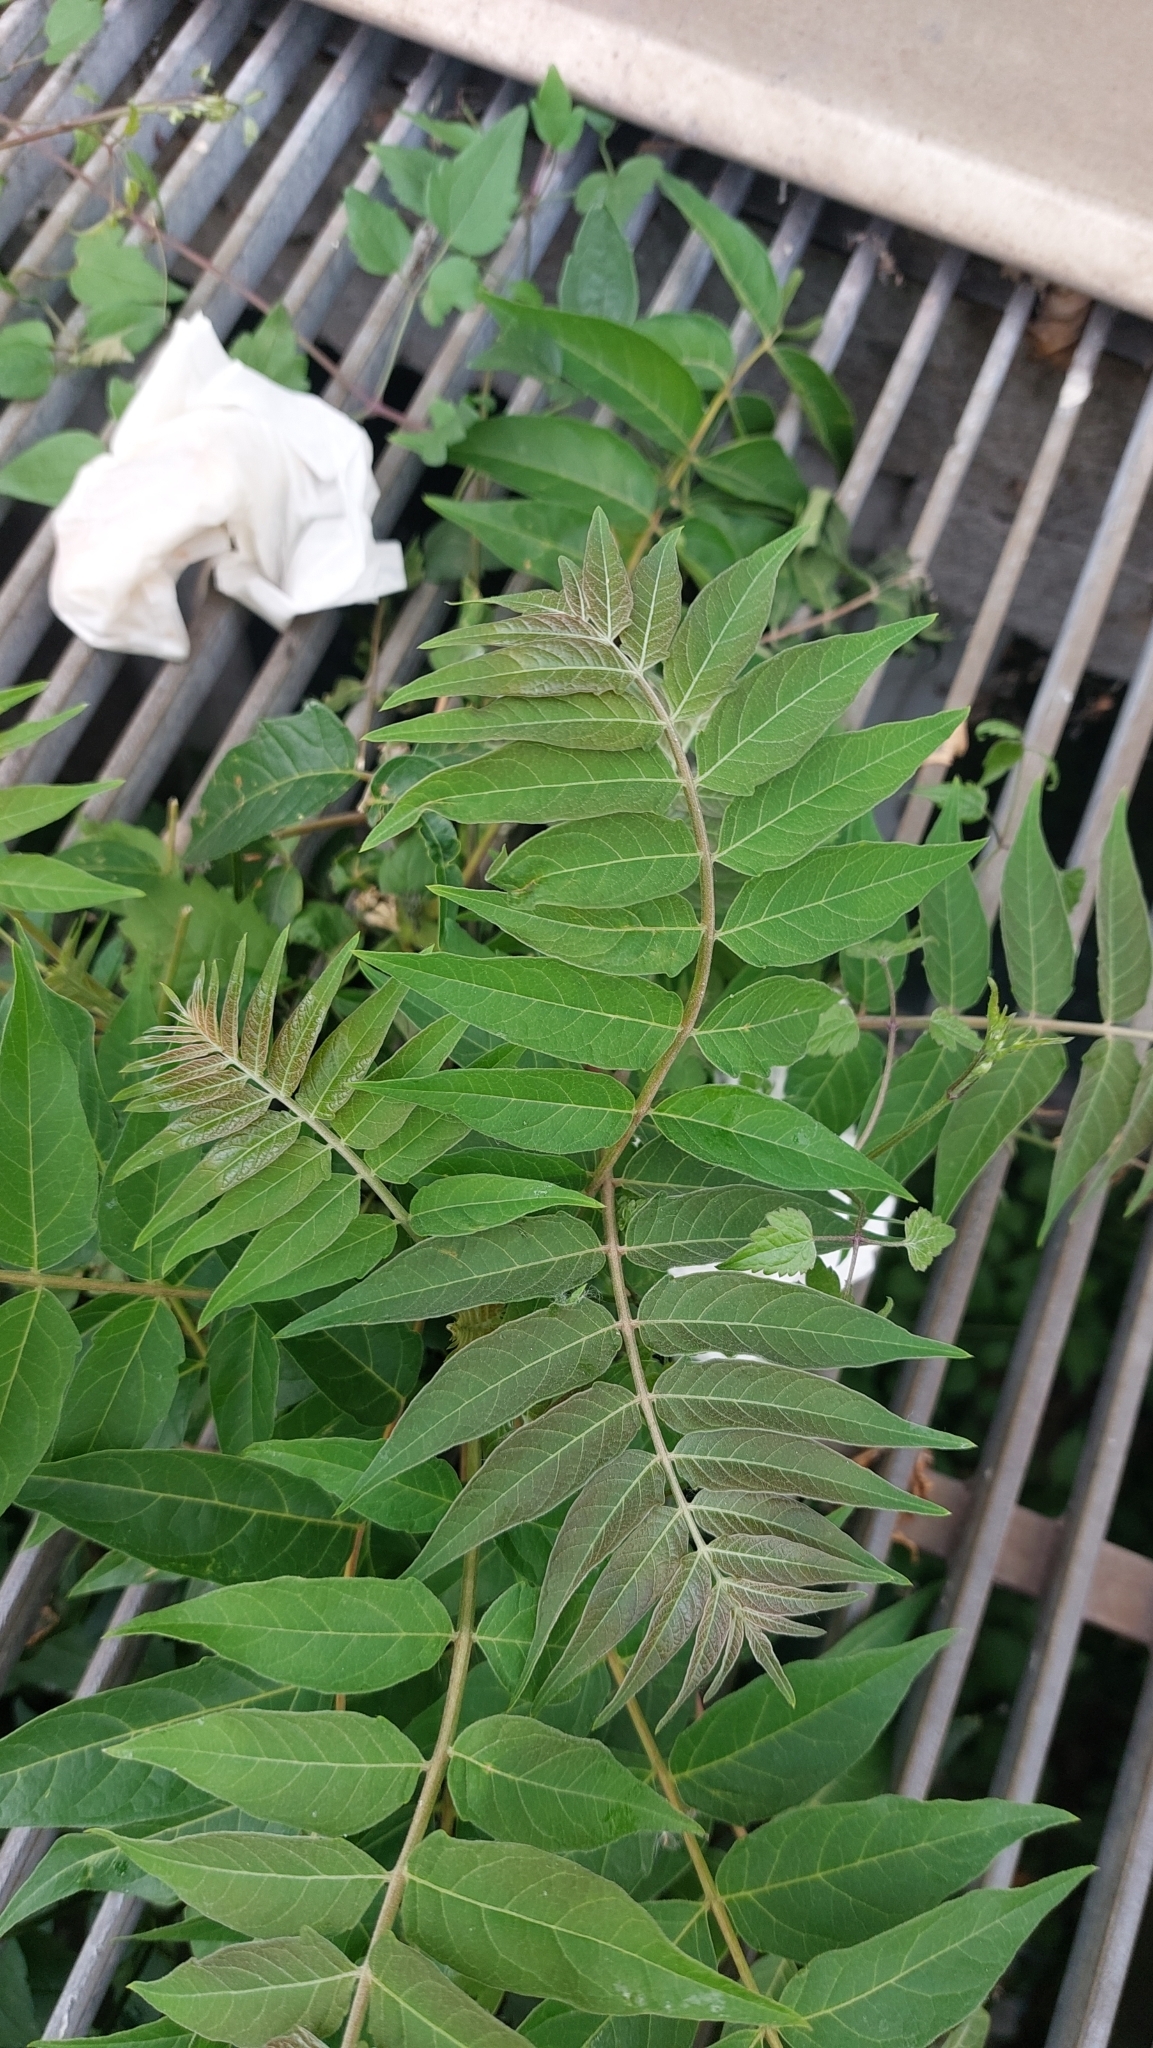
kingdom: Plantae
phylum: Tracheophyta
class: Magnoliopsida
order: Sapindales
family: Simaroubaceae
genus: Ailanthus
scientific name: Ailanthus altissima
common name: Tree-of-heaven
